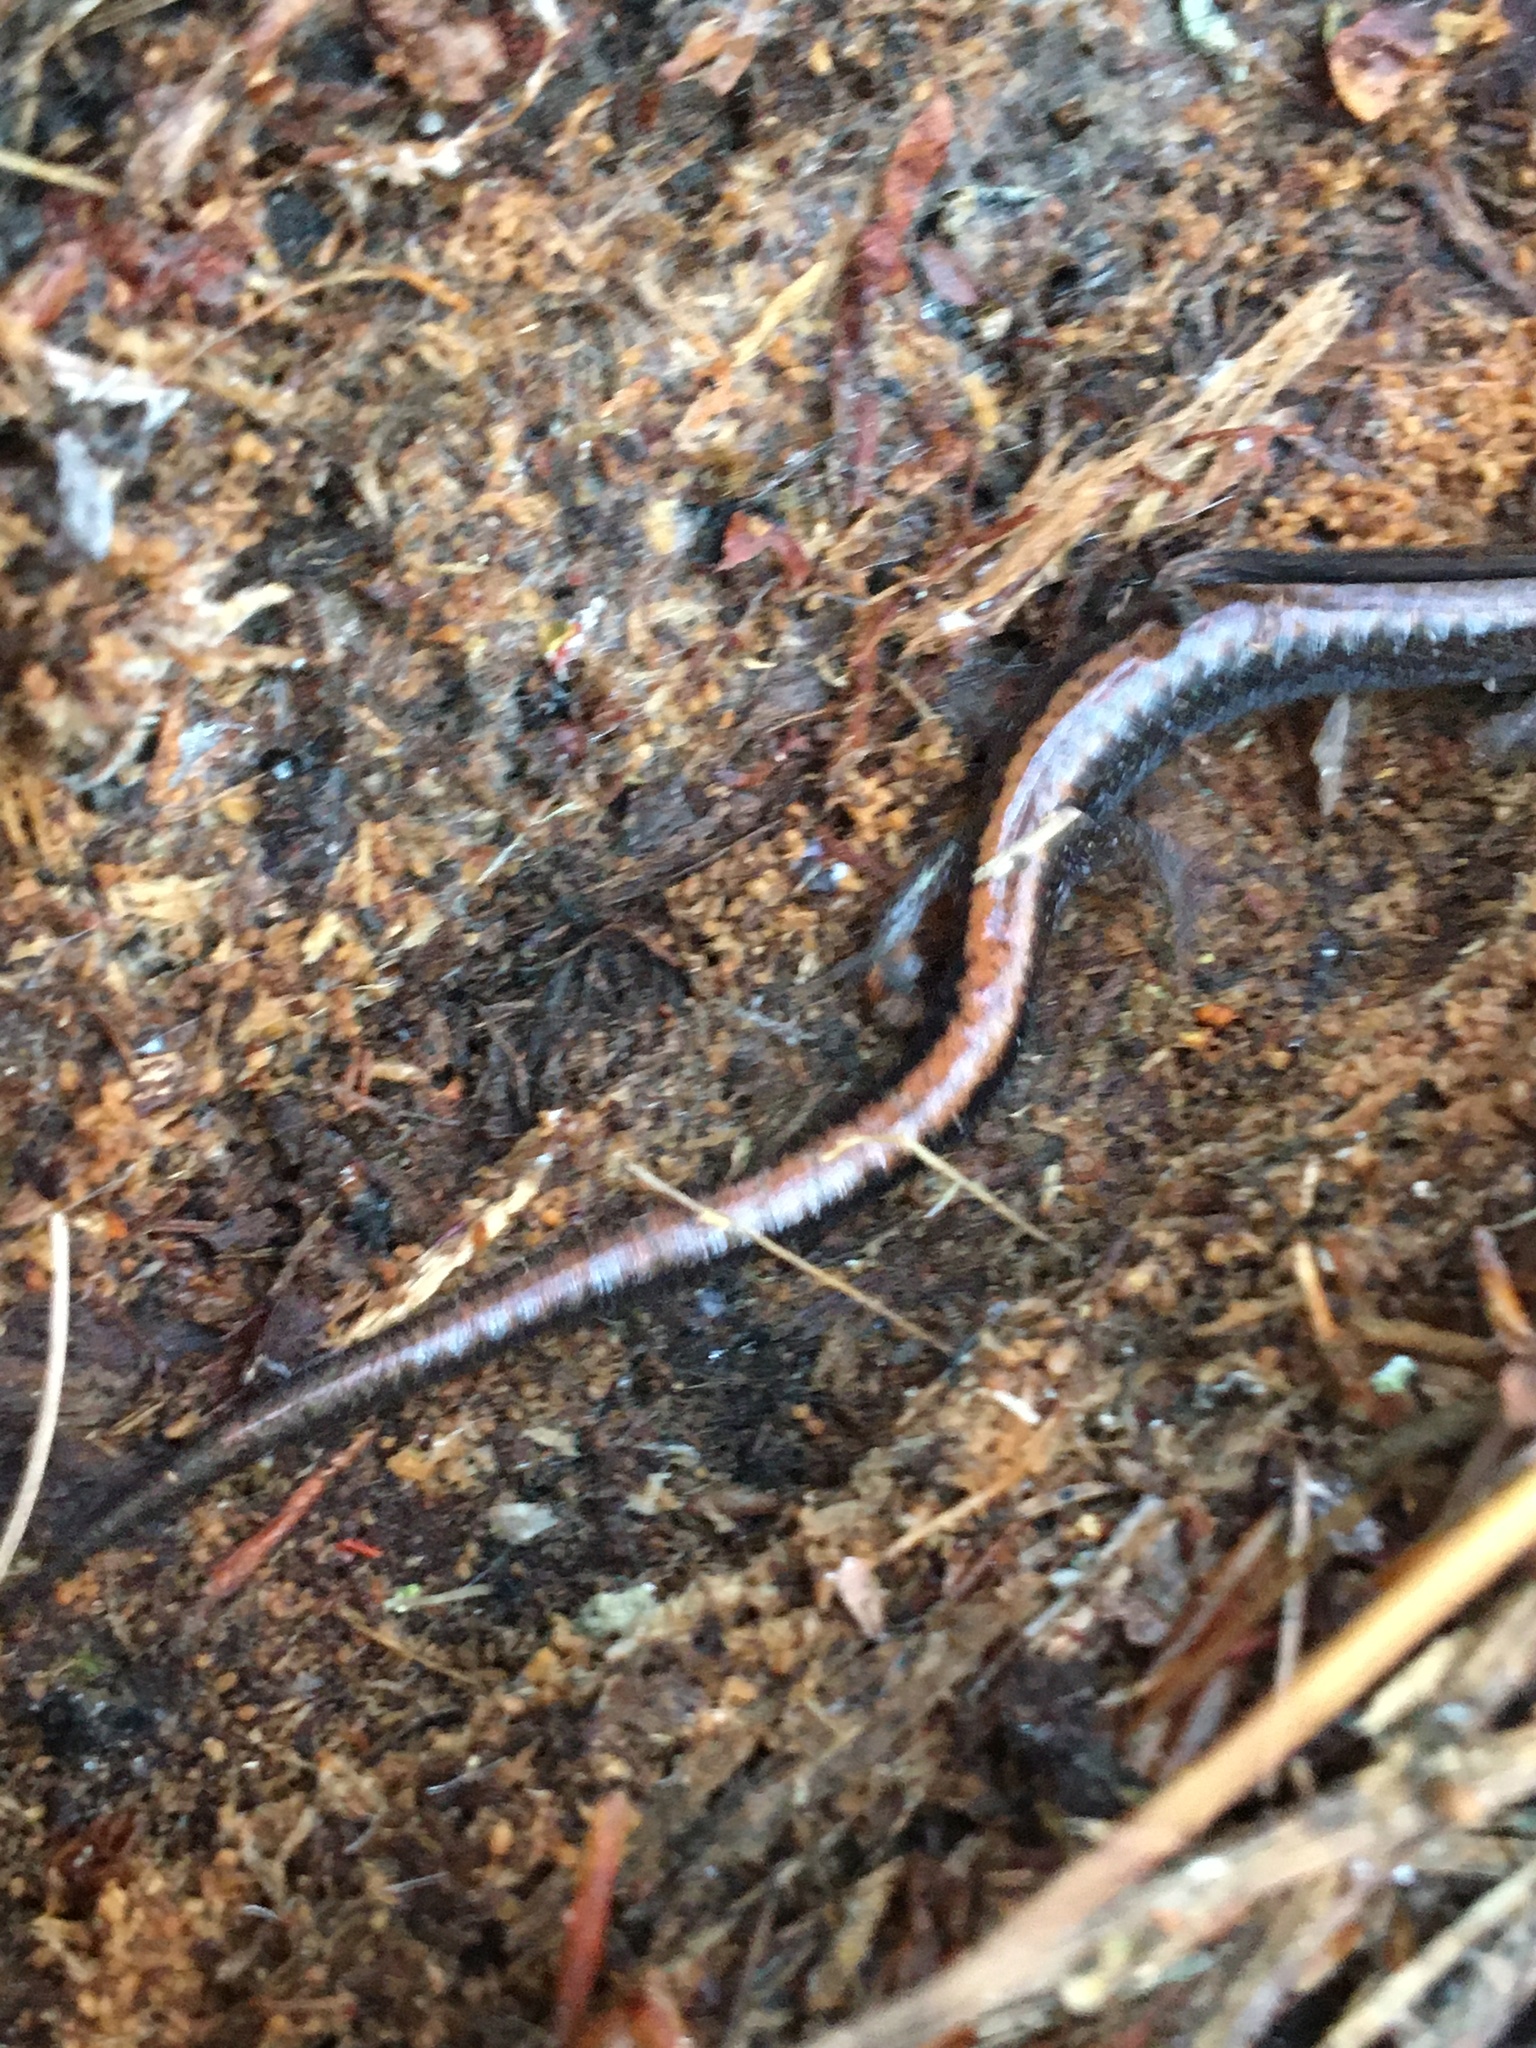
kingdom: Animalia
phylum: Chordata
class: Amphibia
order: Caudata
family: Plethodontidae
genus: Plethodon
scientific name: Plethodon cinereus
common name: Redback salamander
